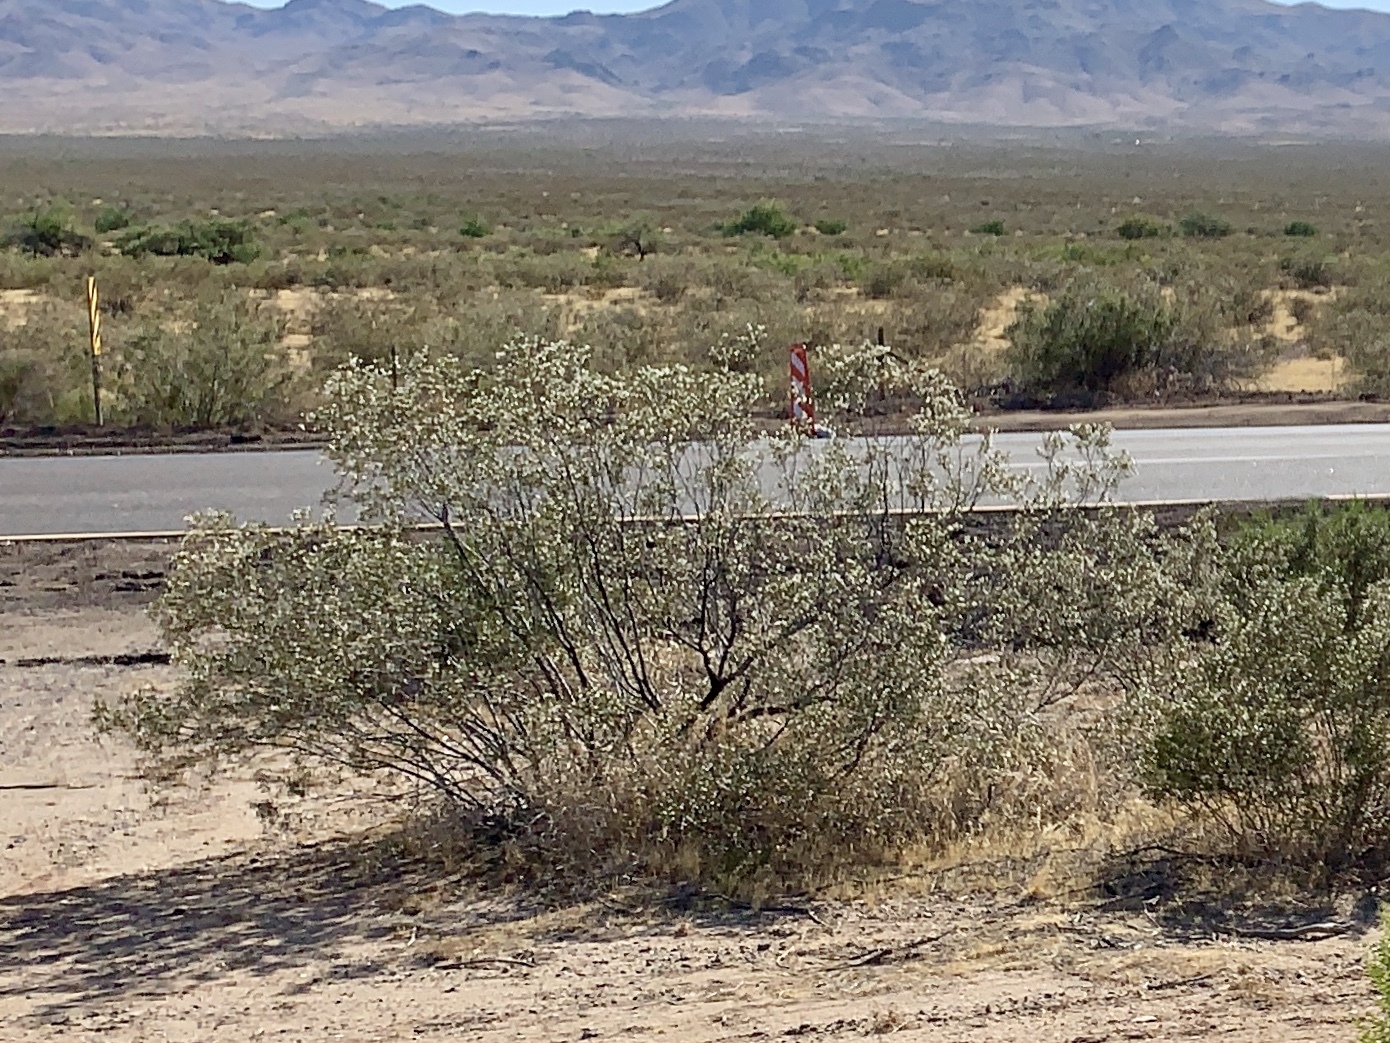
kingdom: Plantae
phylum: Tracheophyta
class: Magnoliopsida
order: Zygophyllales
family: Zygophyllaceae
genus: Larrea
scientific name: Larrea tridentata
